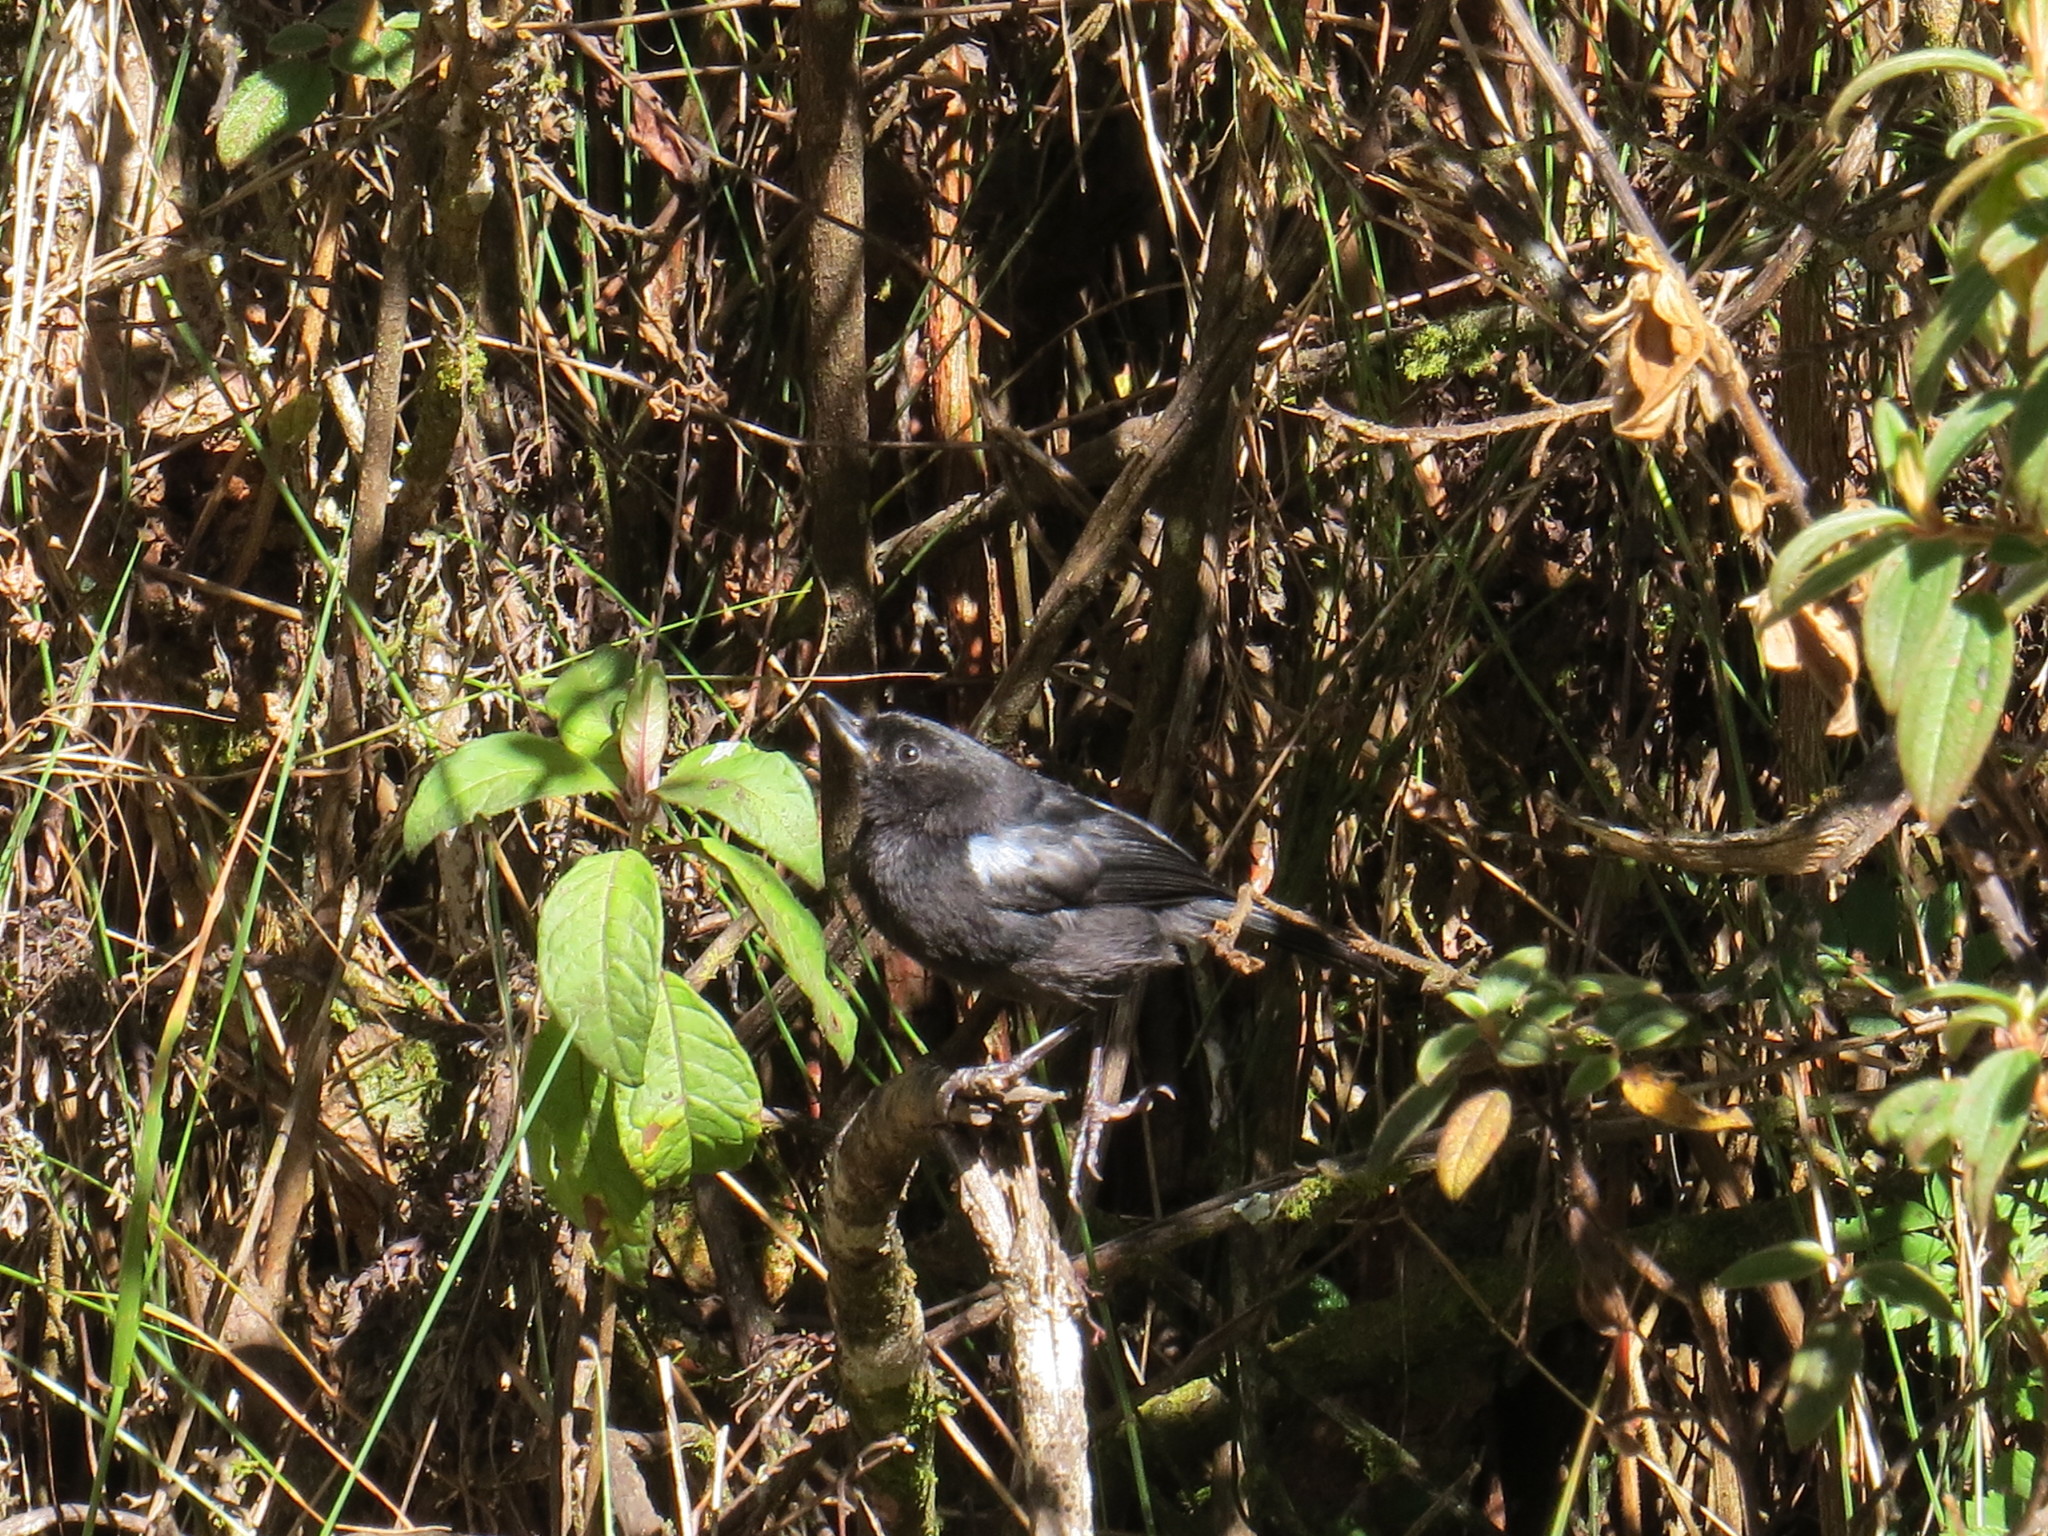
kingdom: Animalia
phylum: Chordata
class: Aves
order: Passeriformes
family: Thraupidae
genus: Diglossa
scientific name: Diglossa lafresnayii
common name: Glossy flowerpiercer
